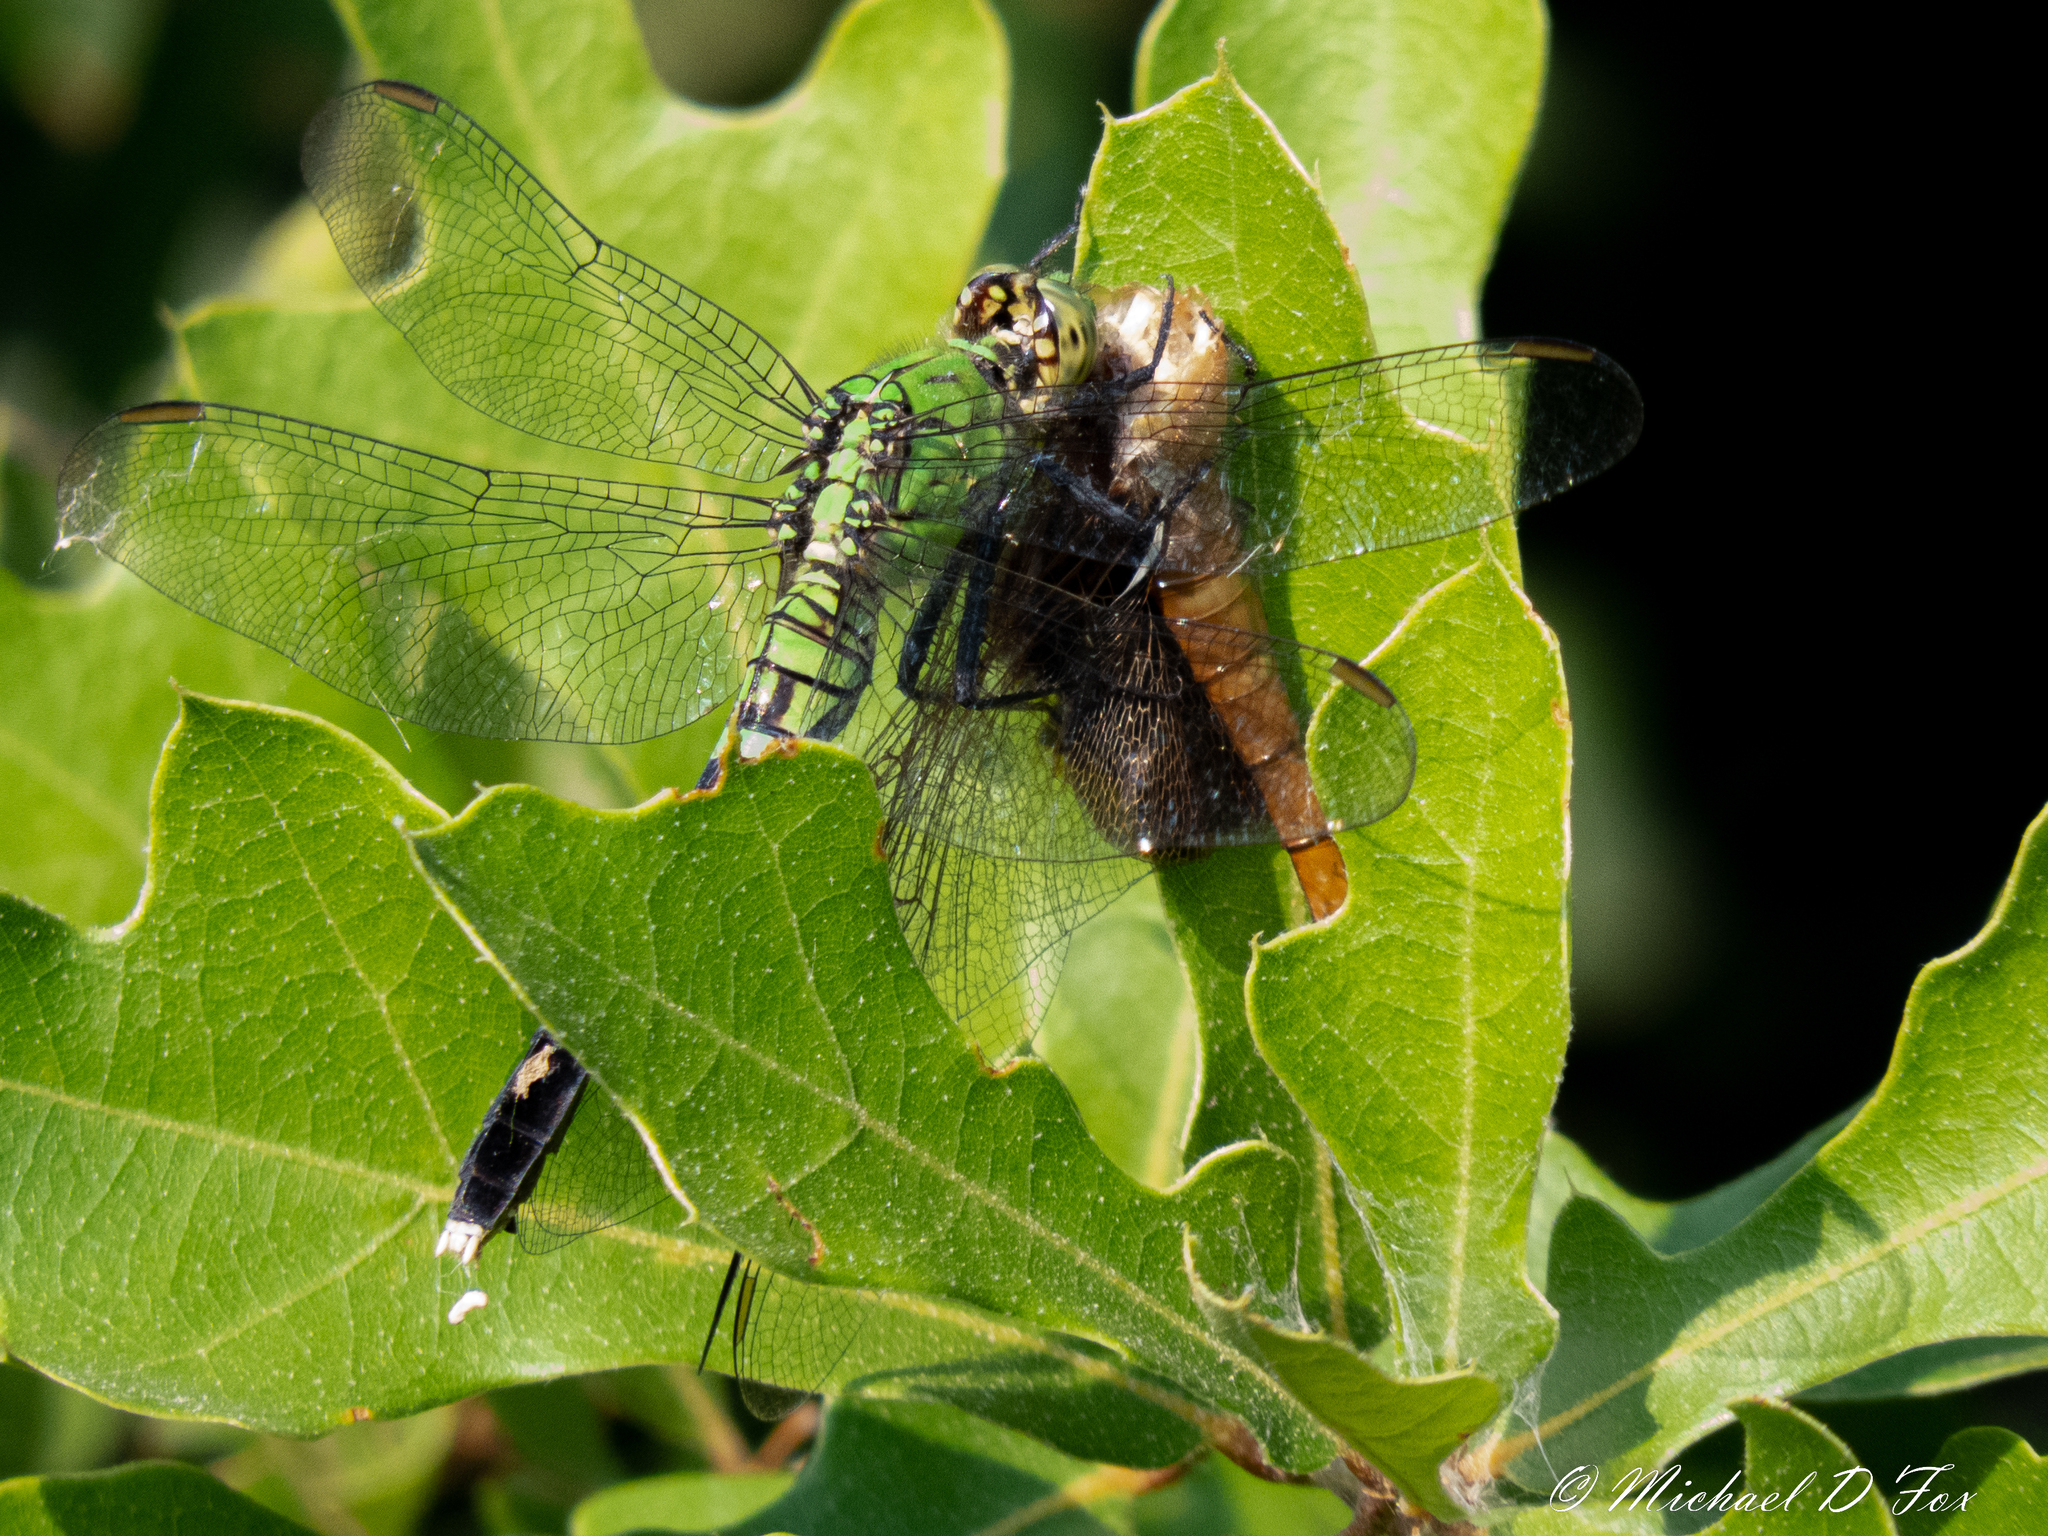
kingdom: Animalia
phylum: Arthropoda
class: Insecta
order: Odonata
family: Libellulidae
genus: Erythemis
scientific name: Erythemis simplicicollis
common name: Eastern pondhawk
